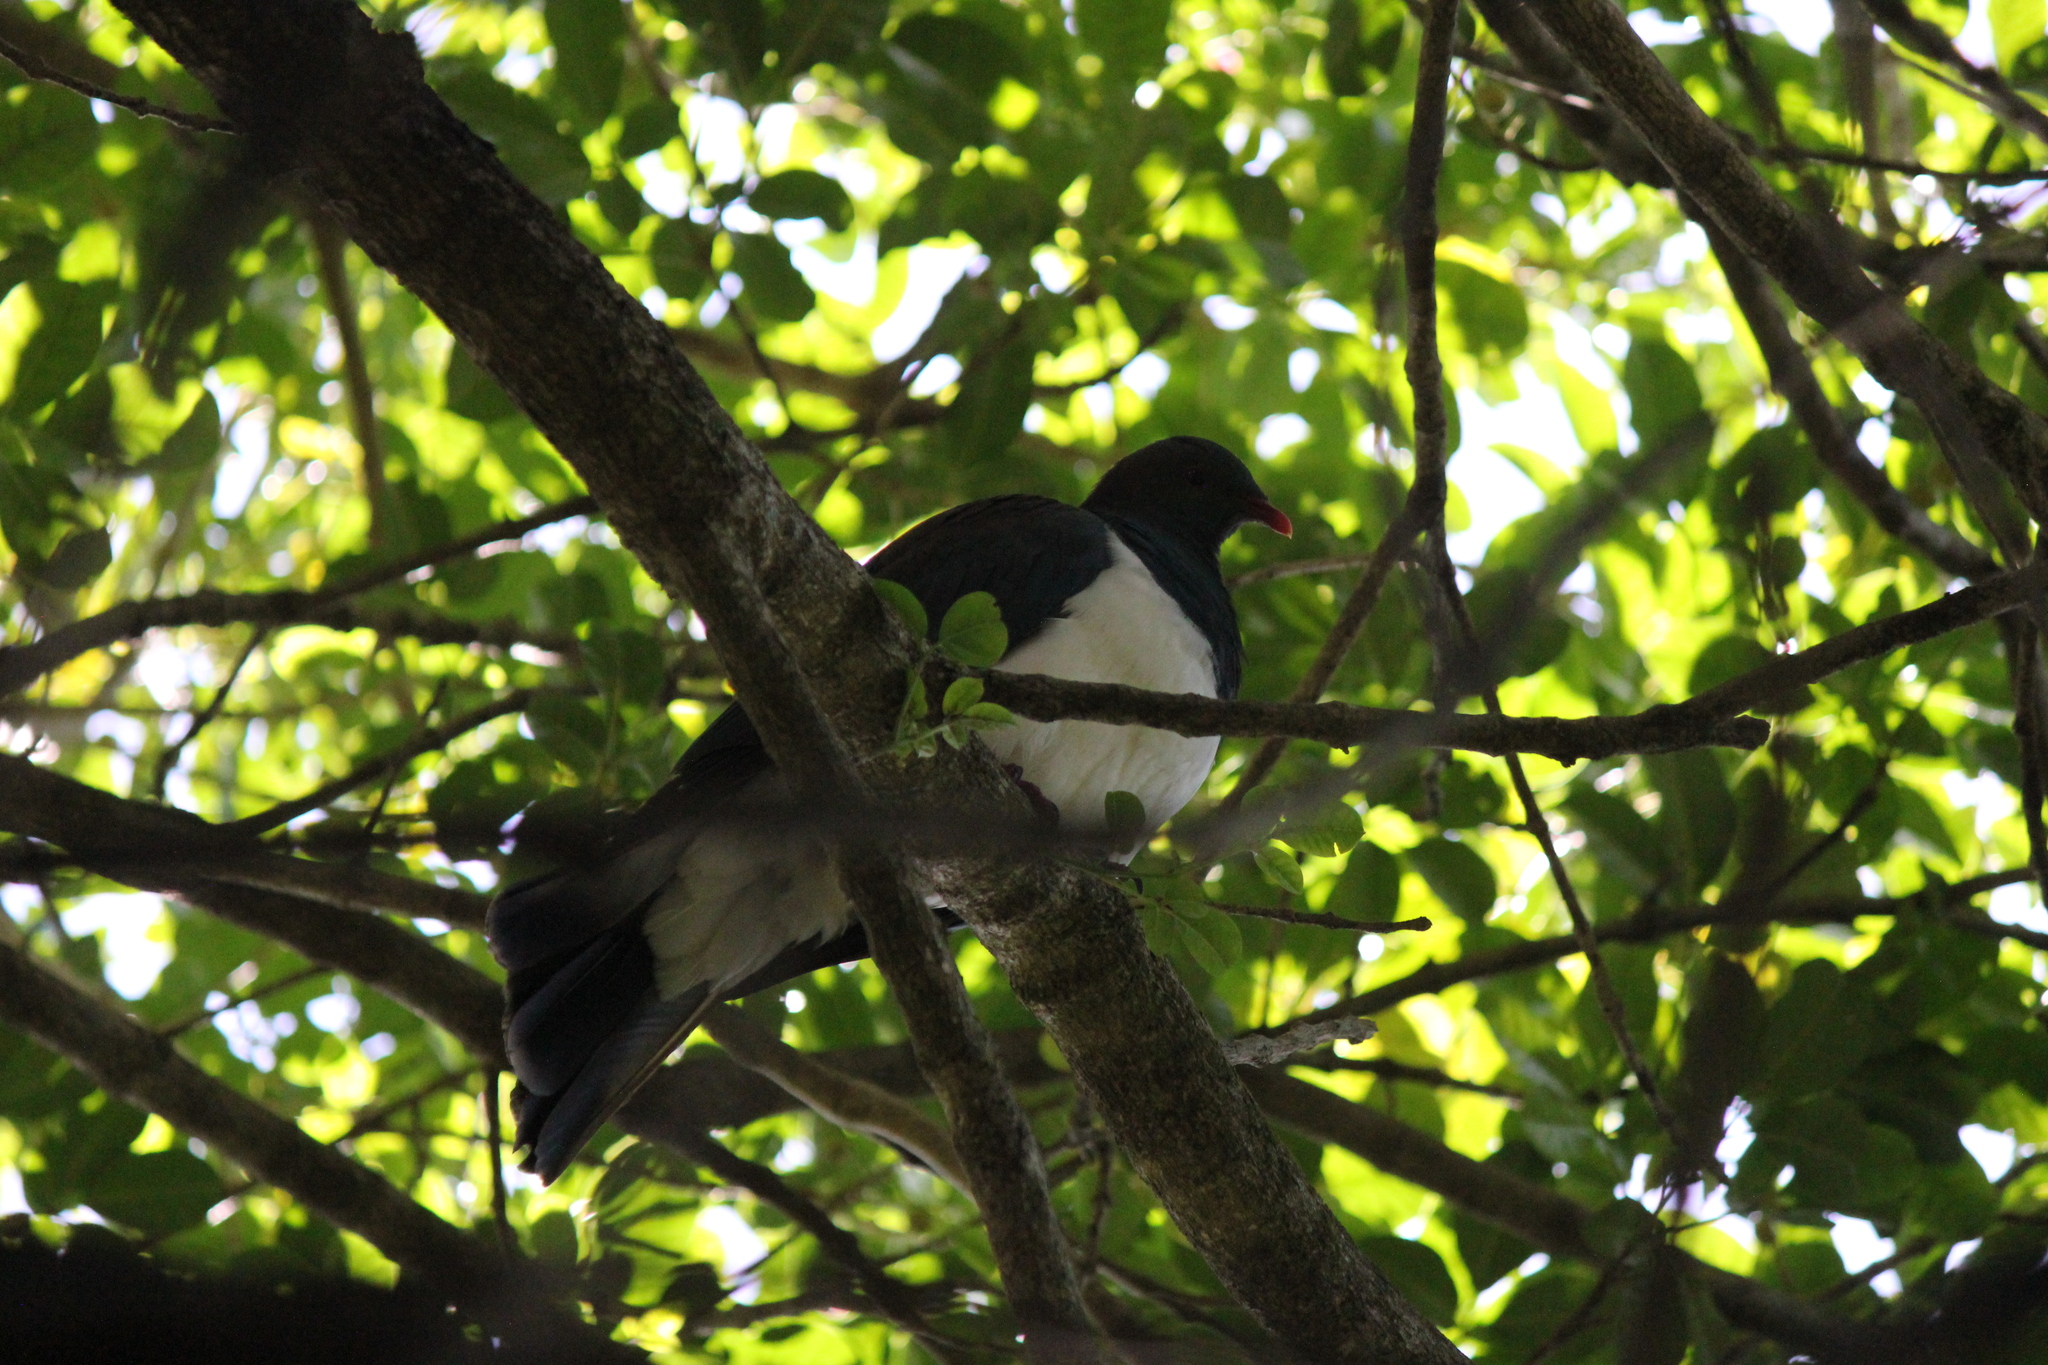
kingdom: Animalia
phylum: Chordata
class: Aves
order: Columbiformes
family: Columbidae
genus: Hemiphaga
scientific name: Hemiphaga novaeseelandiae
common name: New zealand pigeon
